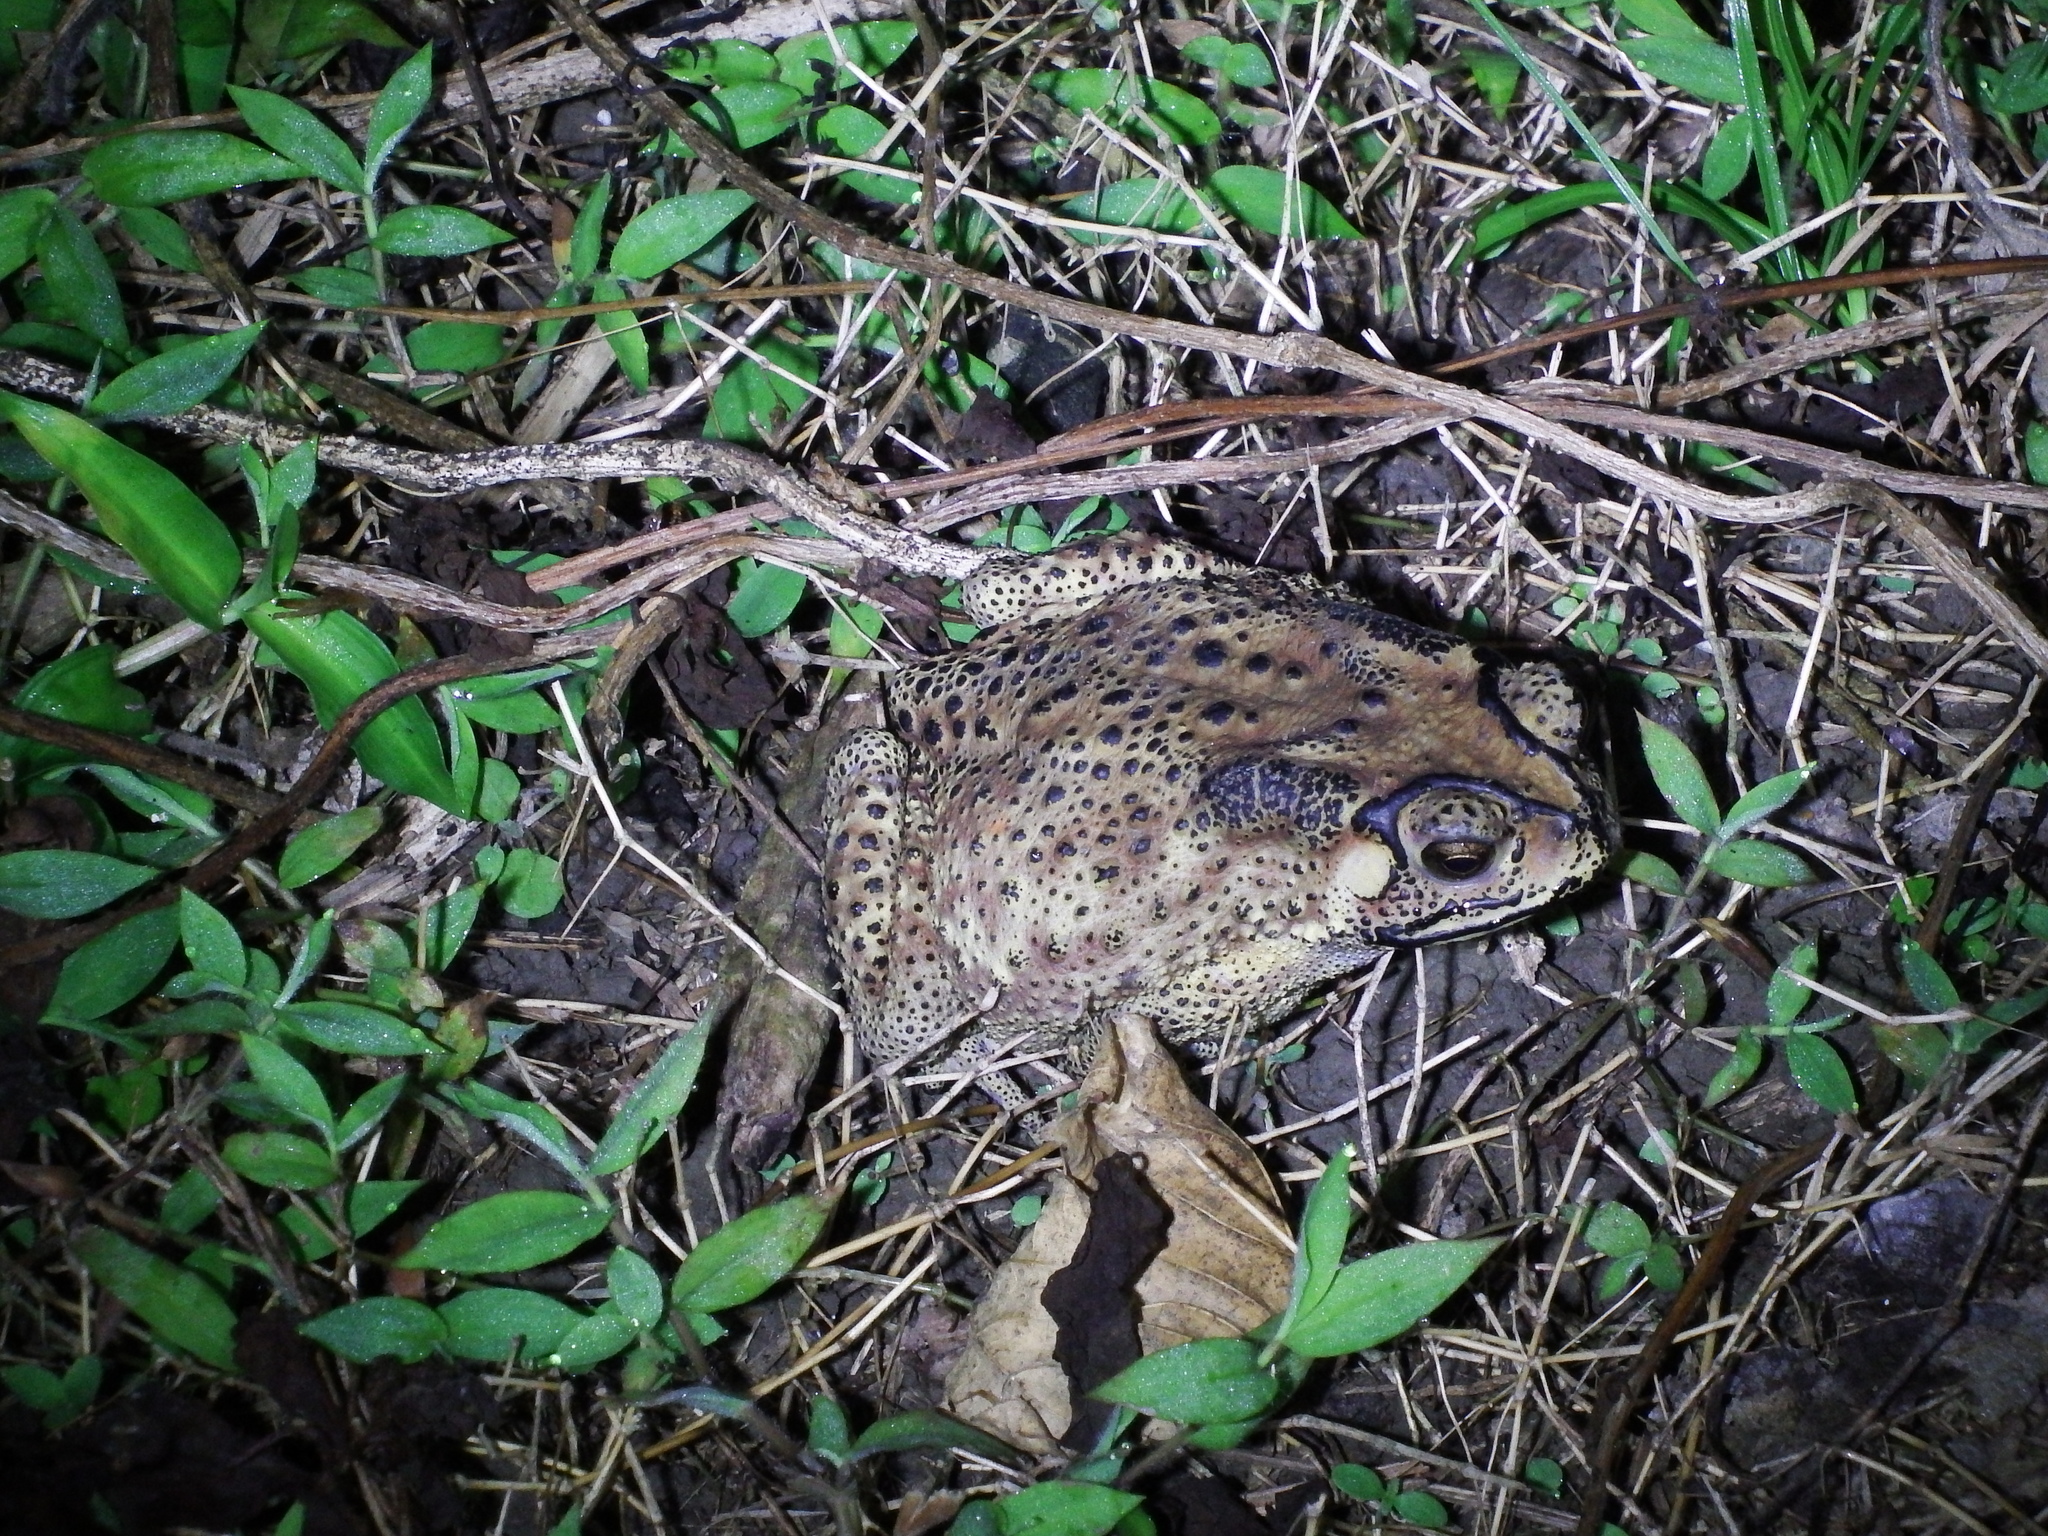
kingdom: Animalia
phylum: Chordata
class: Amphibia
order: Anura
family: Bufonidae
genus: Duttaphrynus
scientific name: Duttaphrynus melanostictus
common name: Common sunda toad
